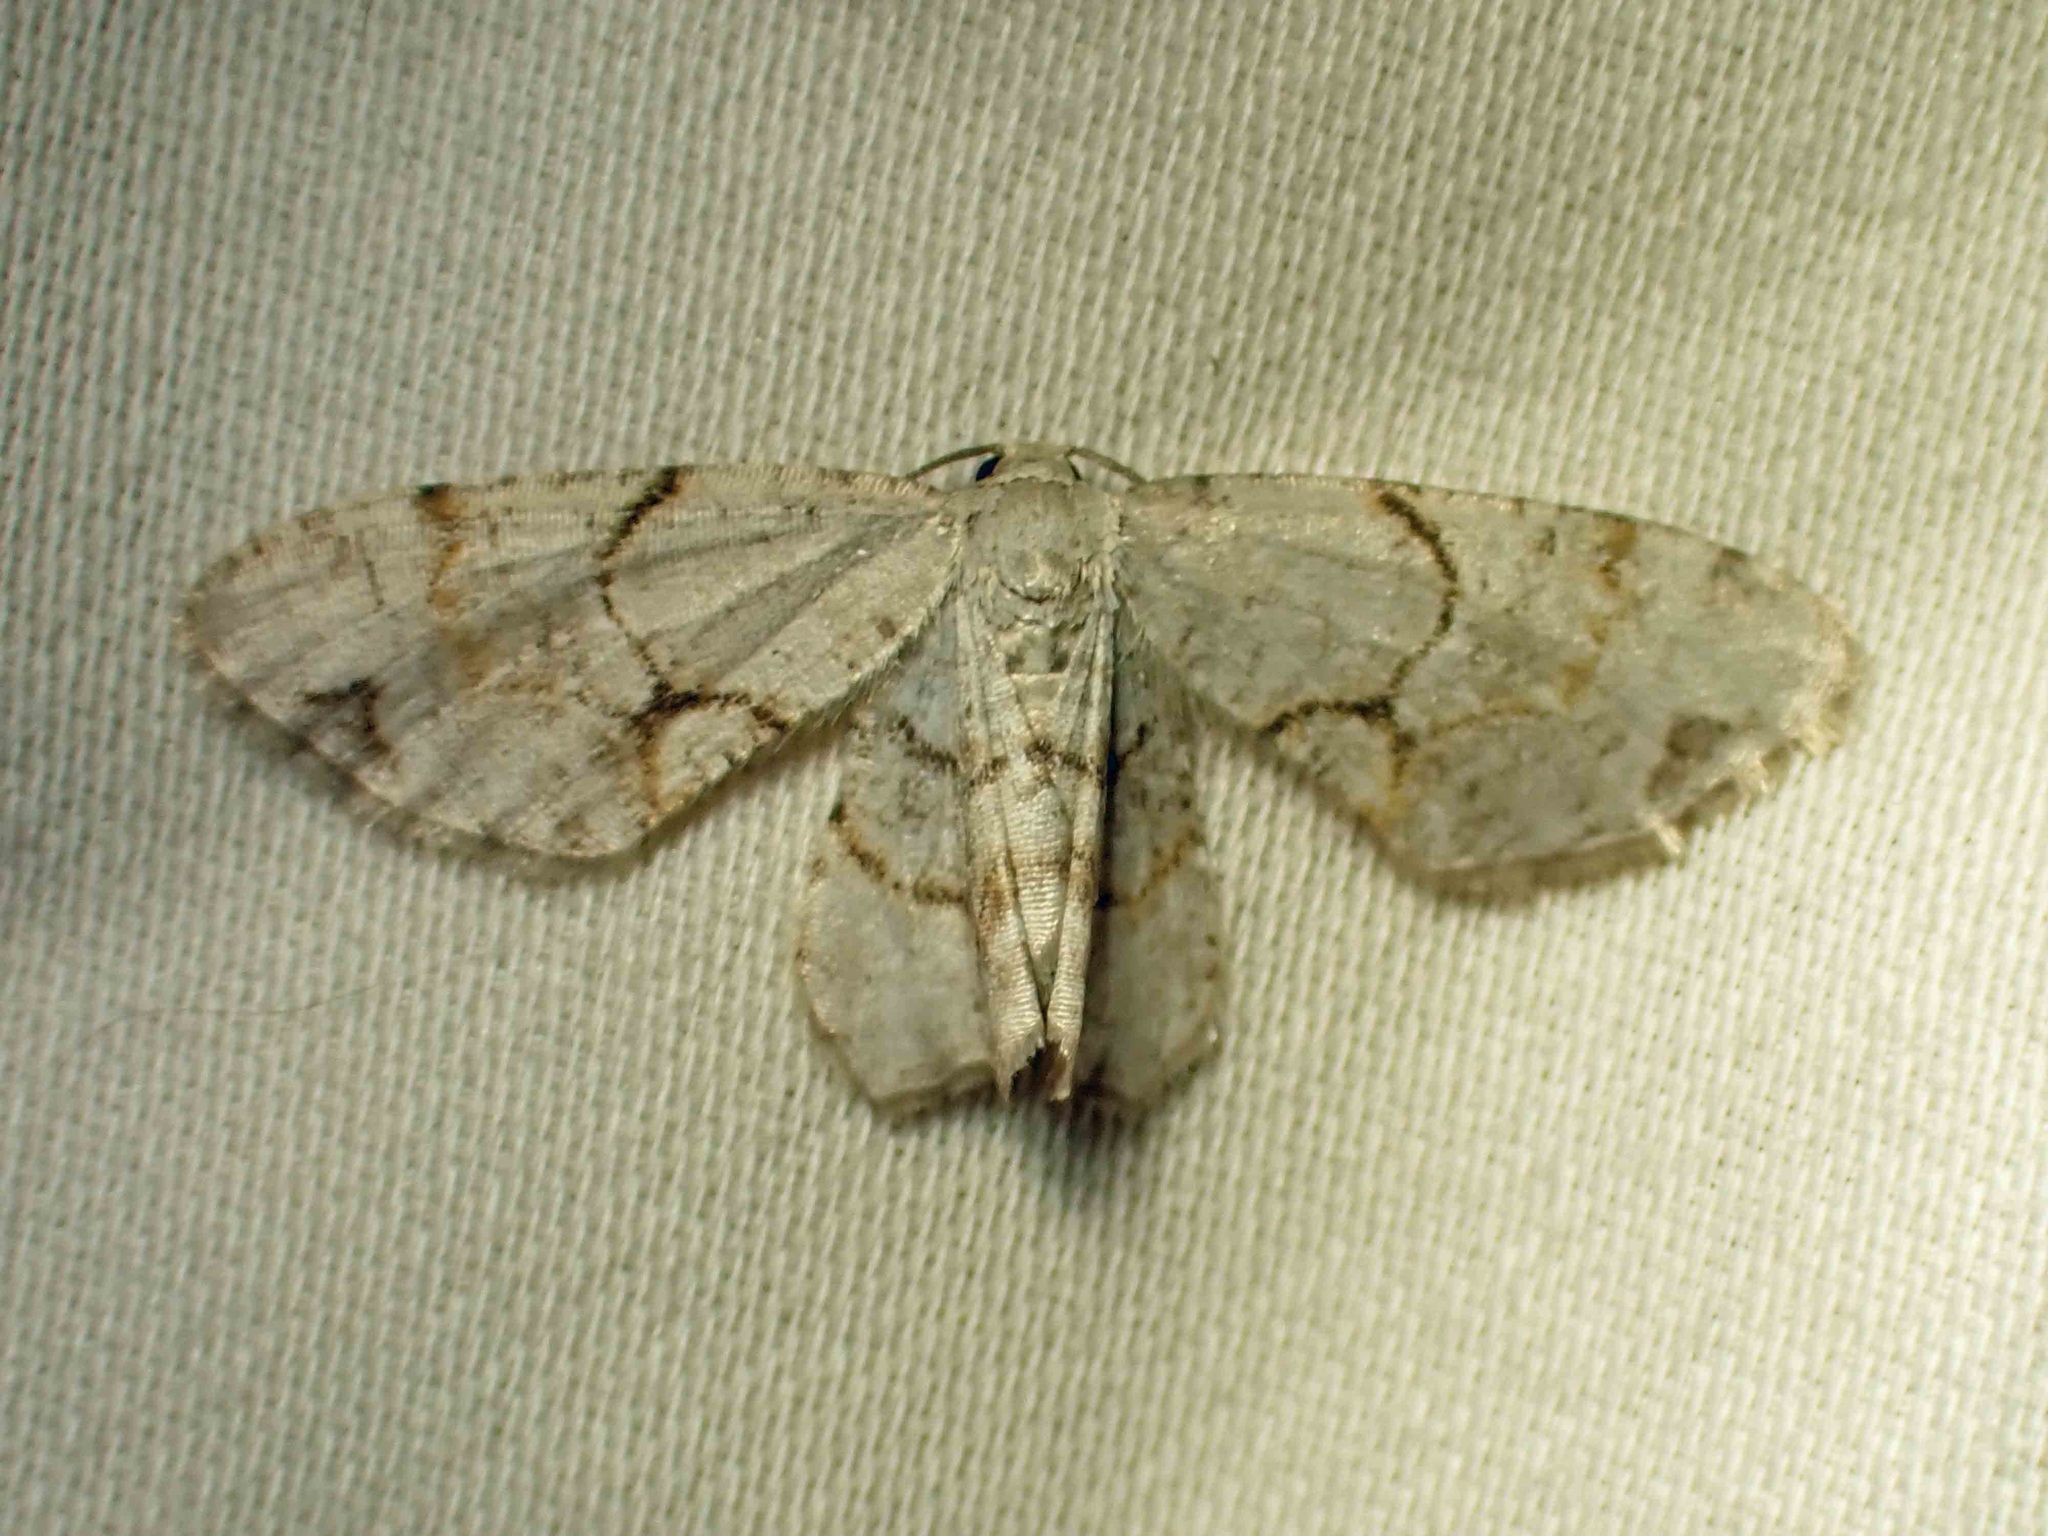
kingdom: Animalia
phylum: Arthropoda
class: Insecta
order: Lepidoptera
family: Uraniidae
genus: Epiplema
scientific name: Epiplema Callizzia amorata
